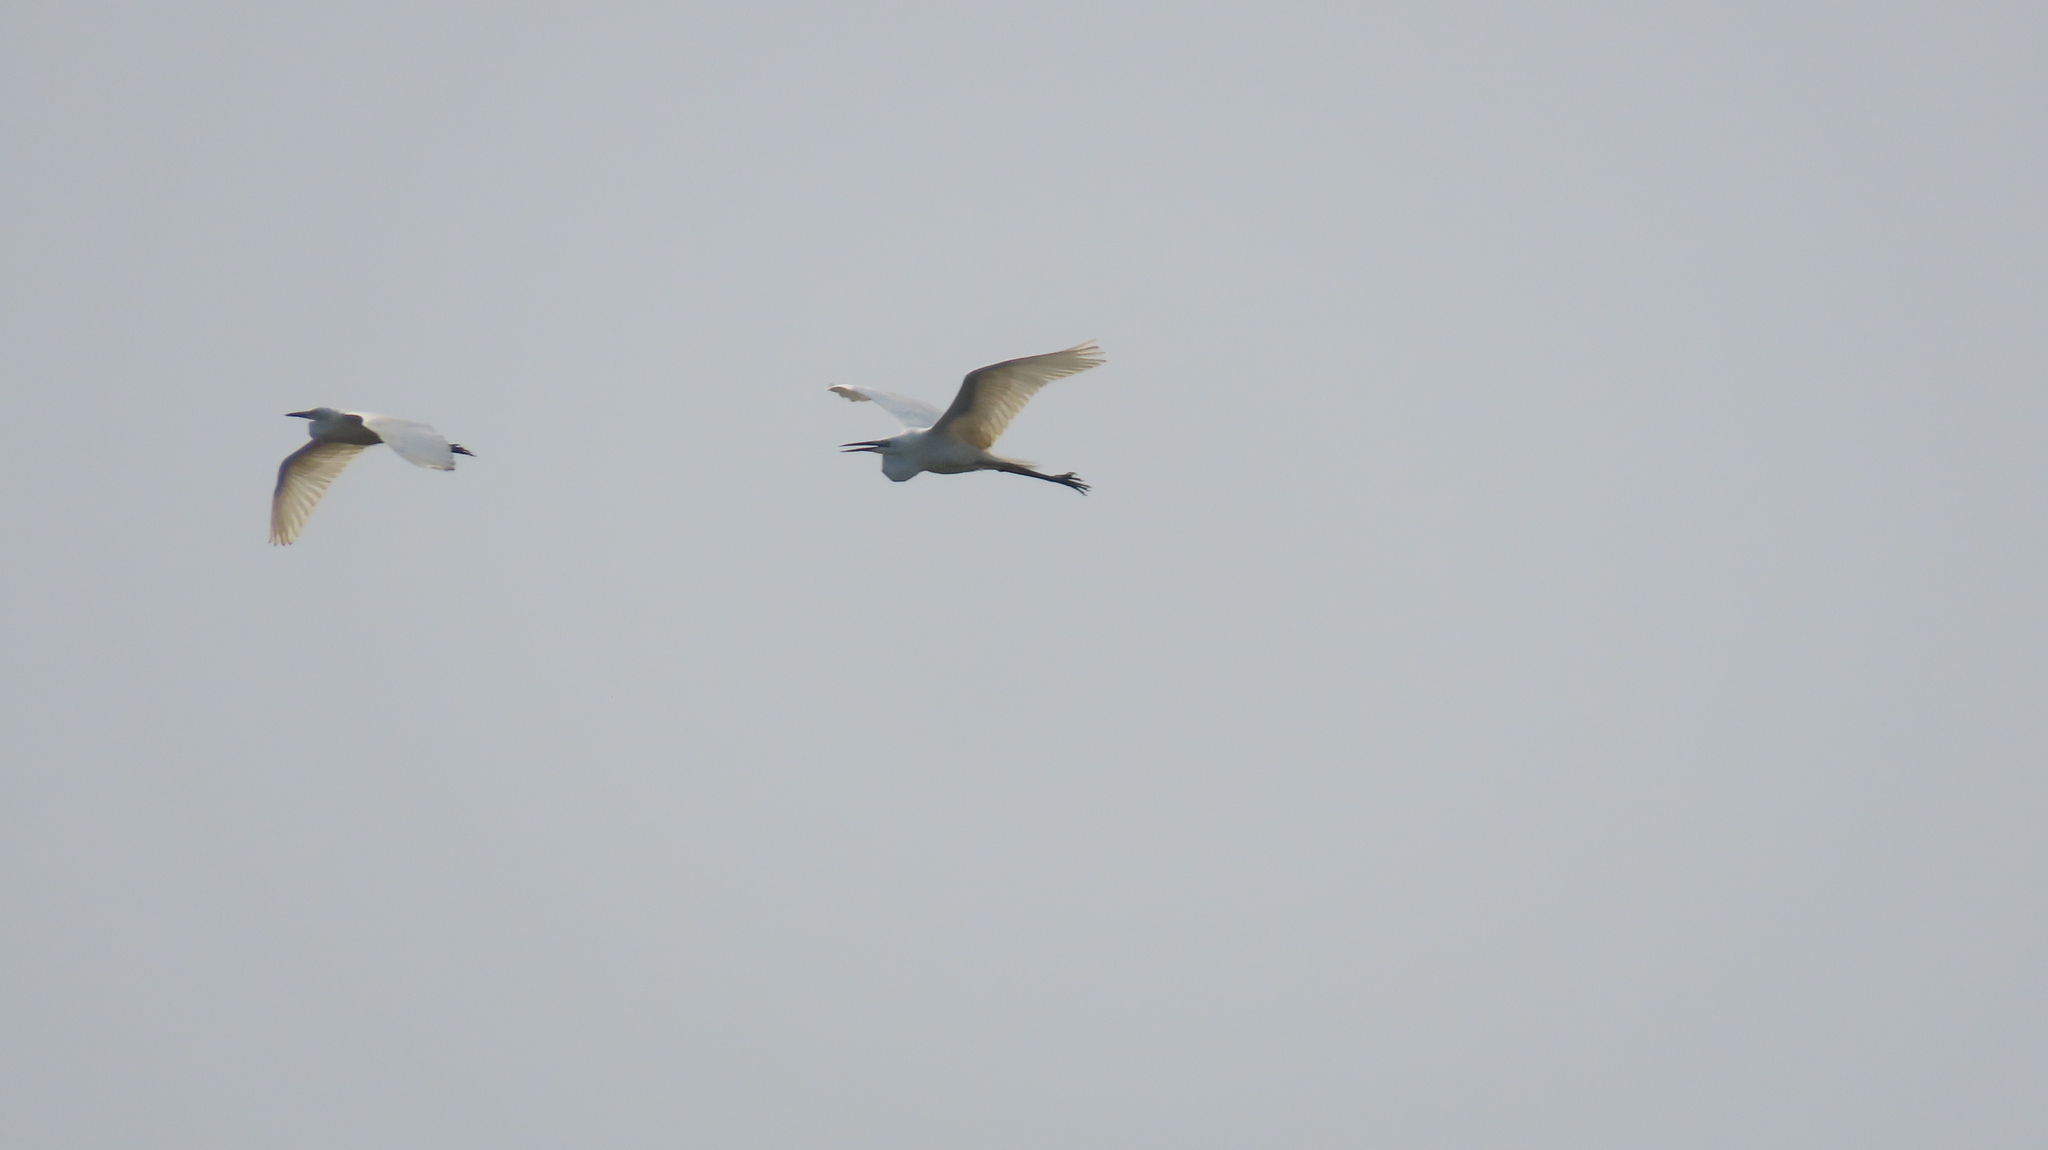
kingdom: Animalia
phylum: Chordata
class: Aves
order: Pelecaniformes
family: Ardeidae
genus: Ardea
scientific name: Ardea alba
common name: Great egret
